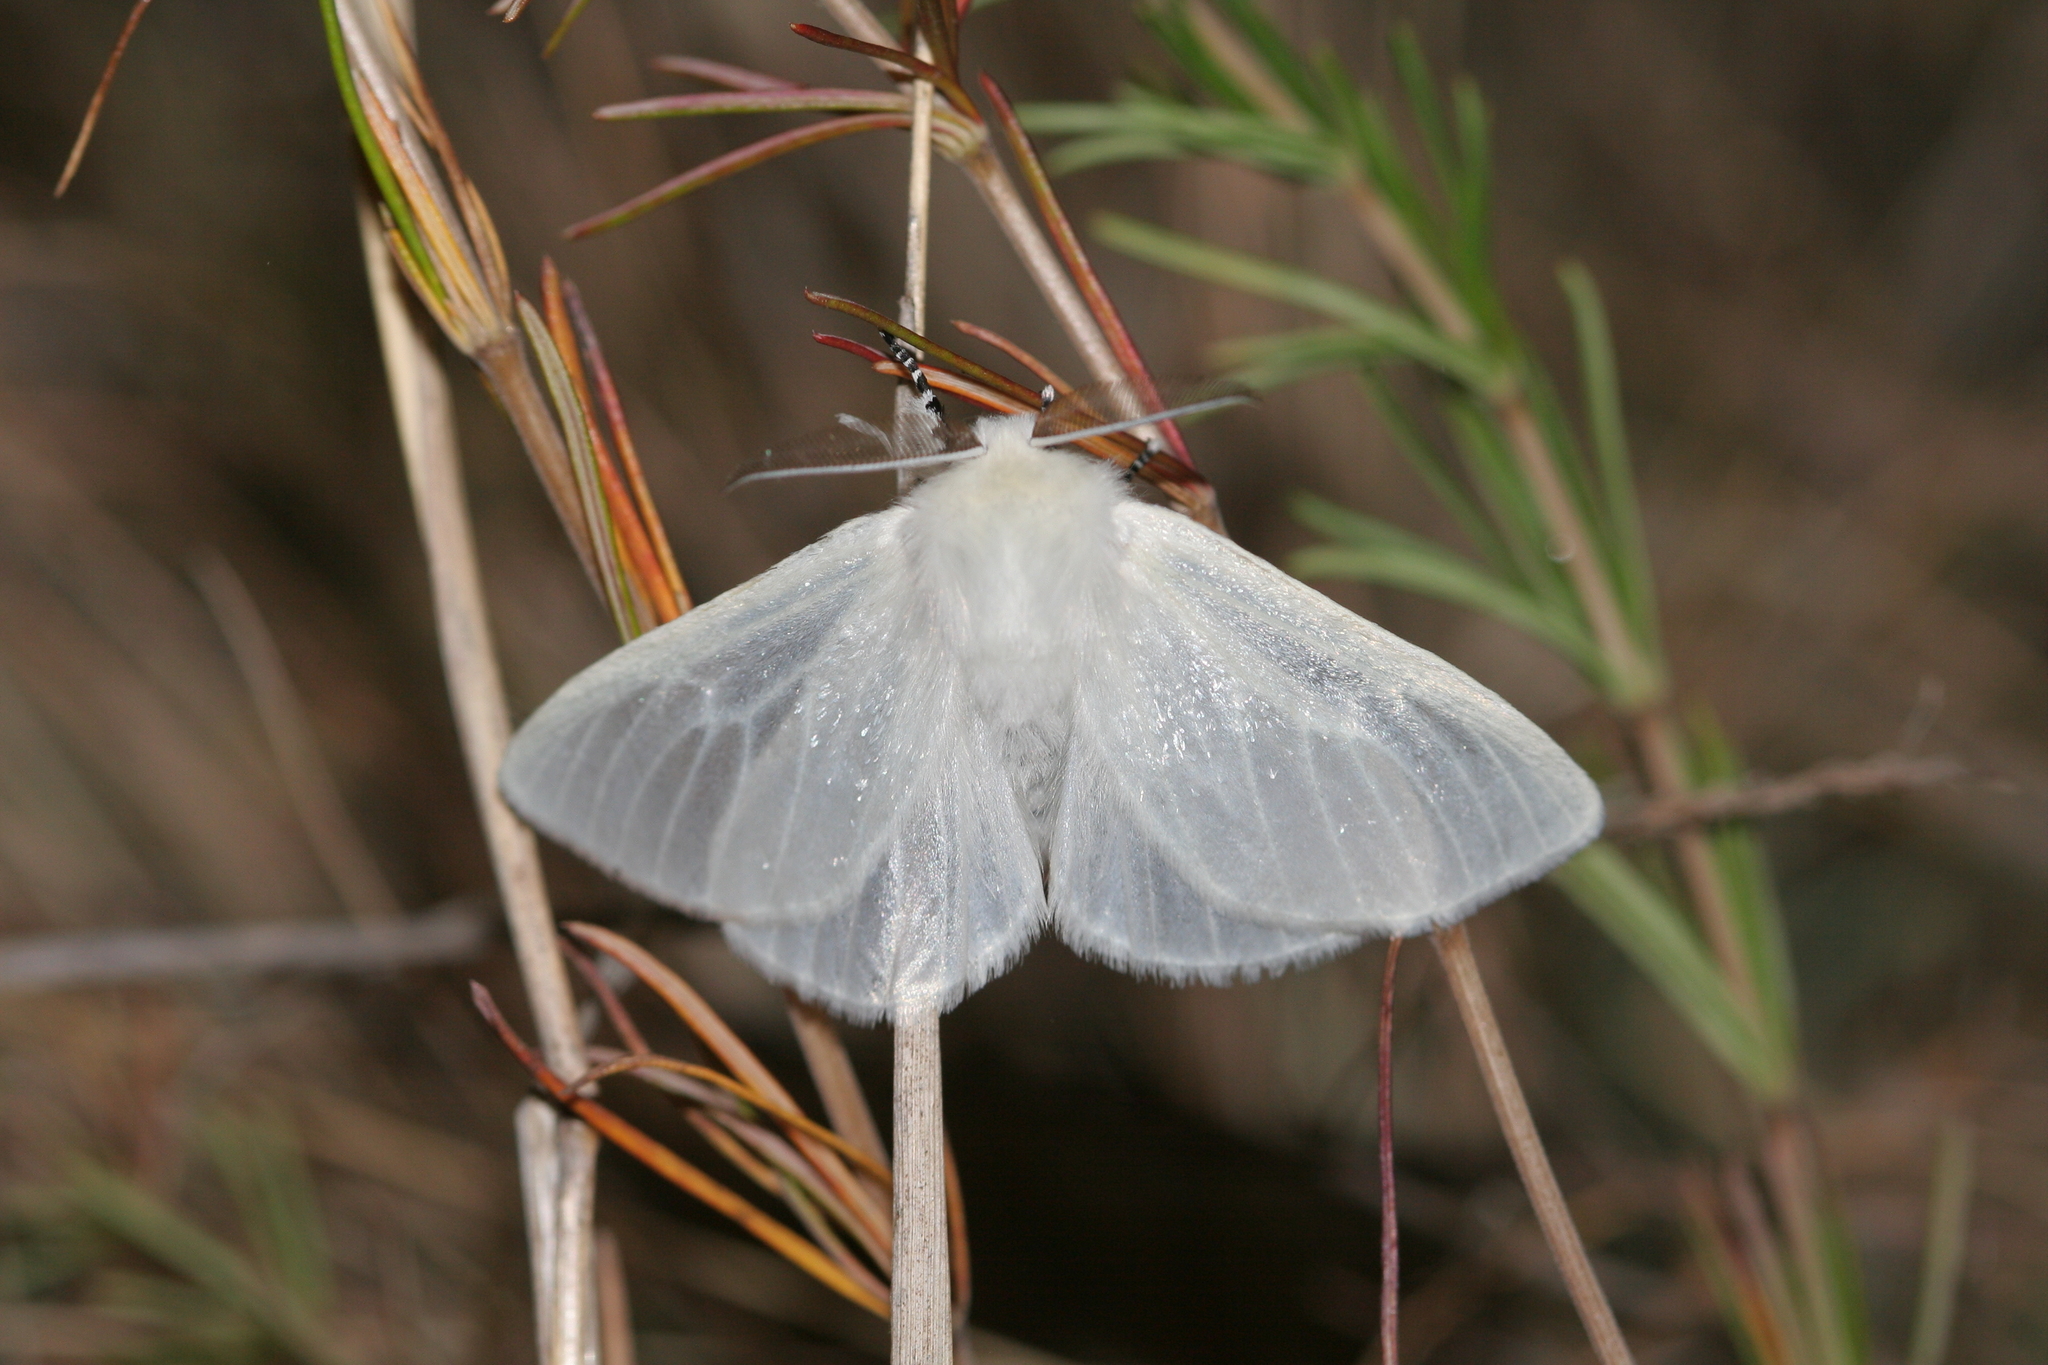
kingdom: Animalia
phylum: Arthropoda
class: Insecta
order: Lepidoptera
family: Erebidae
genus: Leucoma
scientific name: Leucoma salicis
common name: White satin moth
